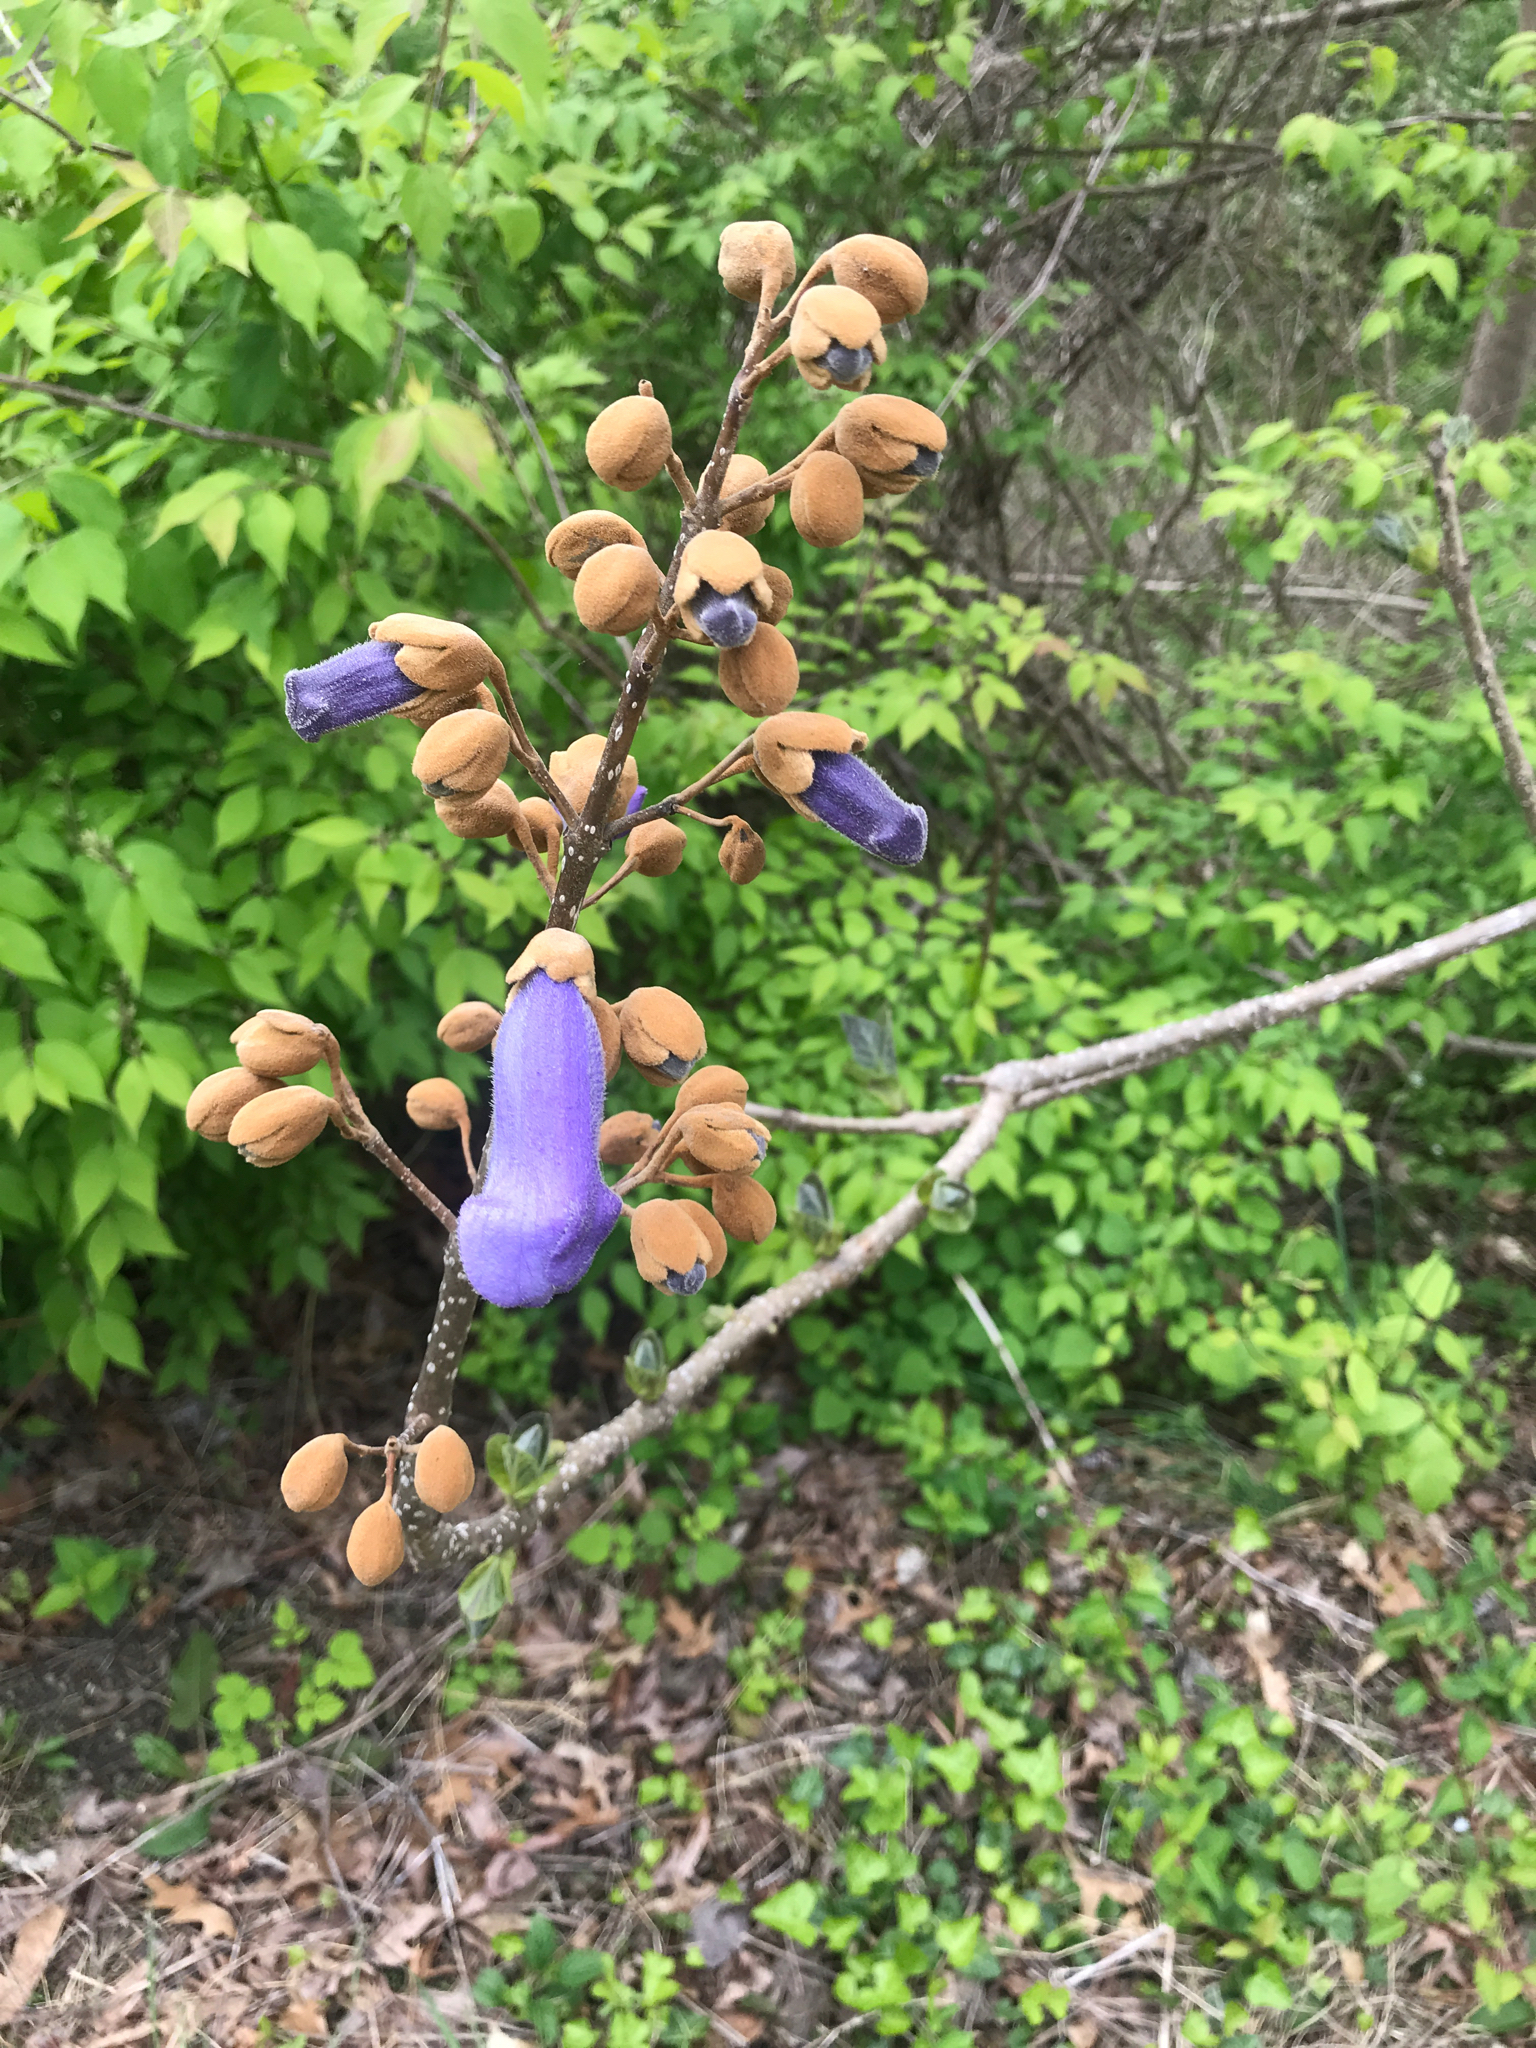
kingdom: Plantae
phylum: Tracheophyta
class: Magnoliopsida
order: Lamiales
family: Paulowniaceae
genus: Paulownia
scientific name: Paulownia tomentosa
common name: Foxglove-tree
